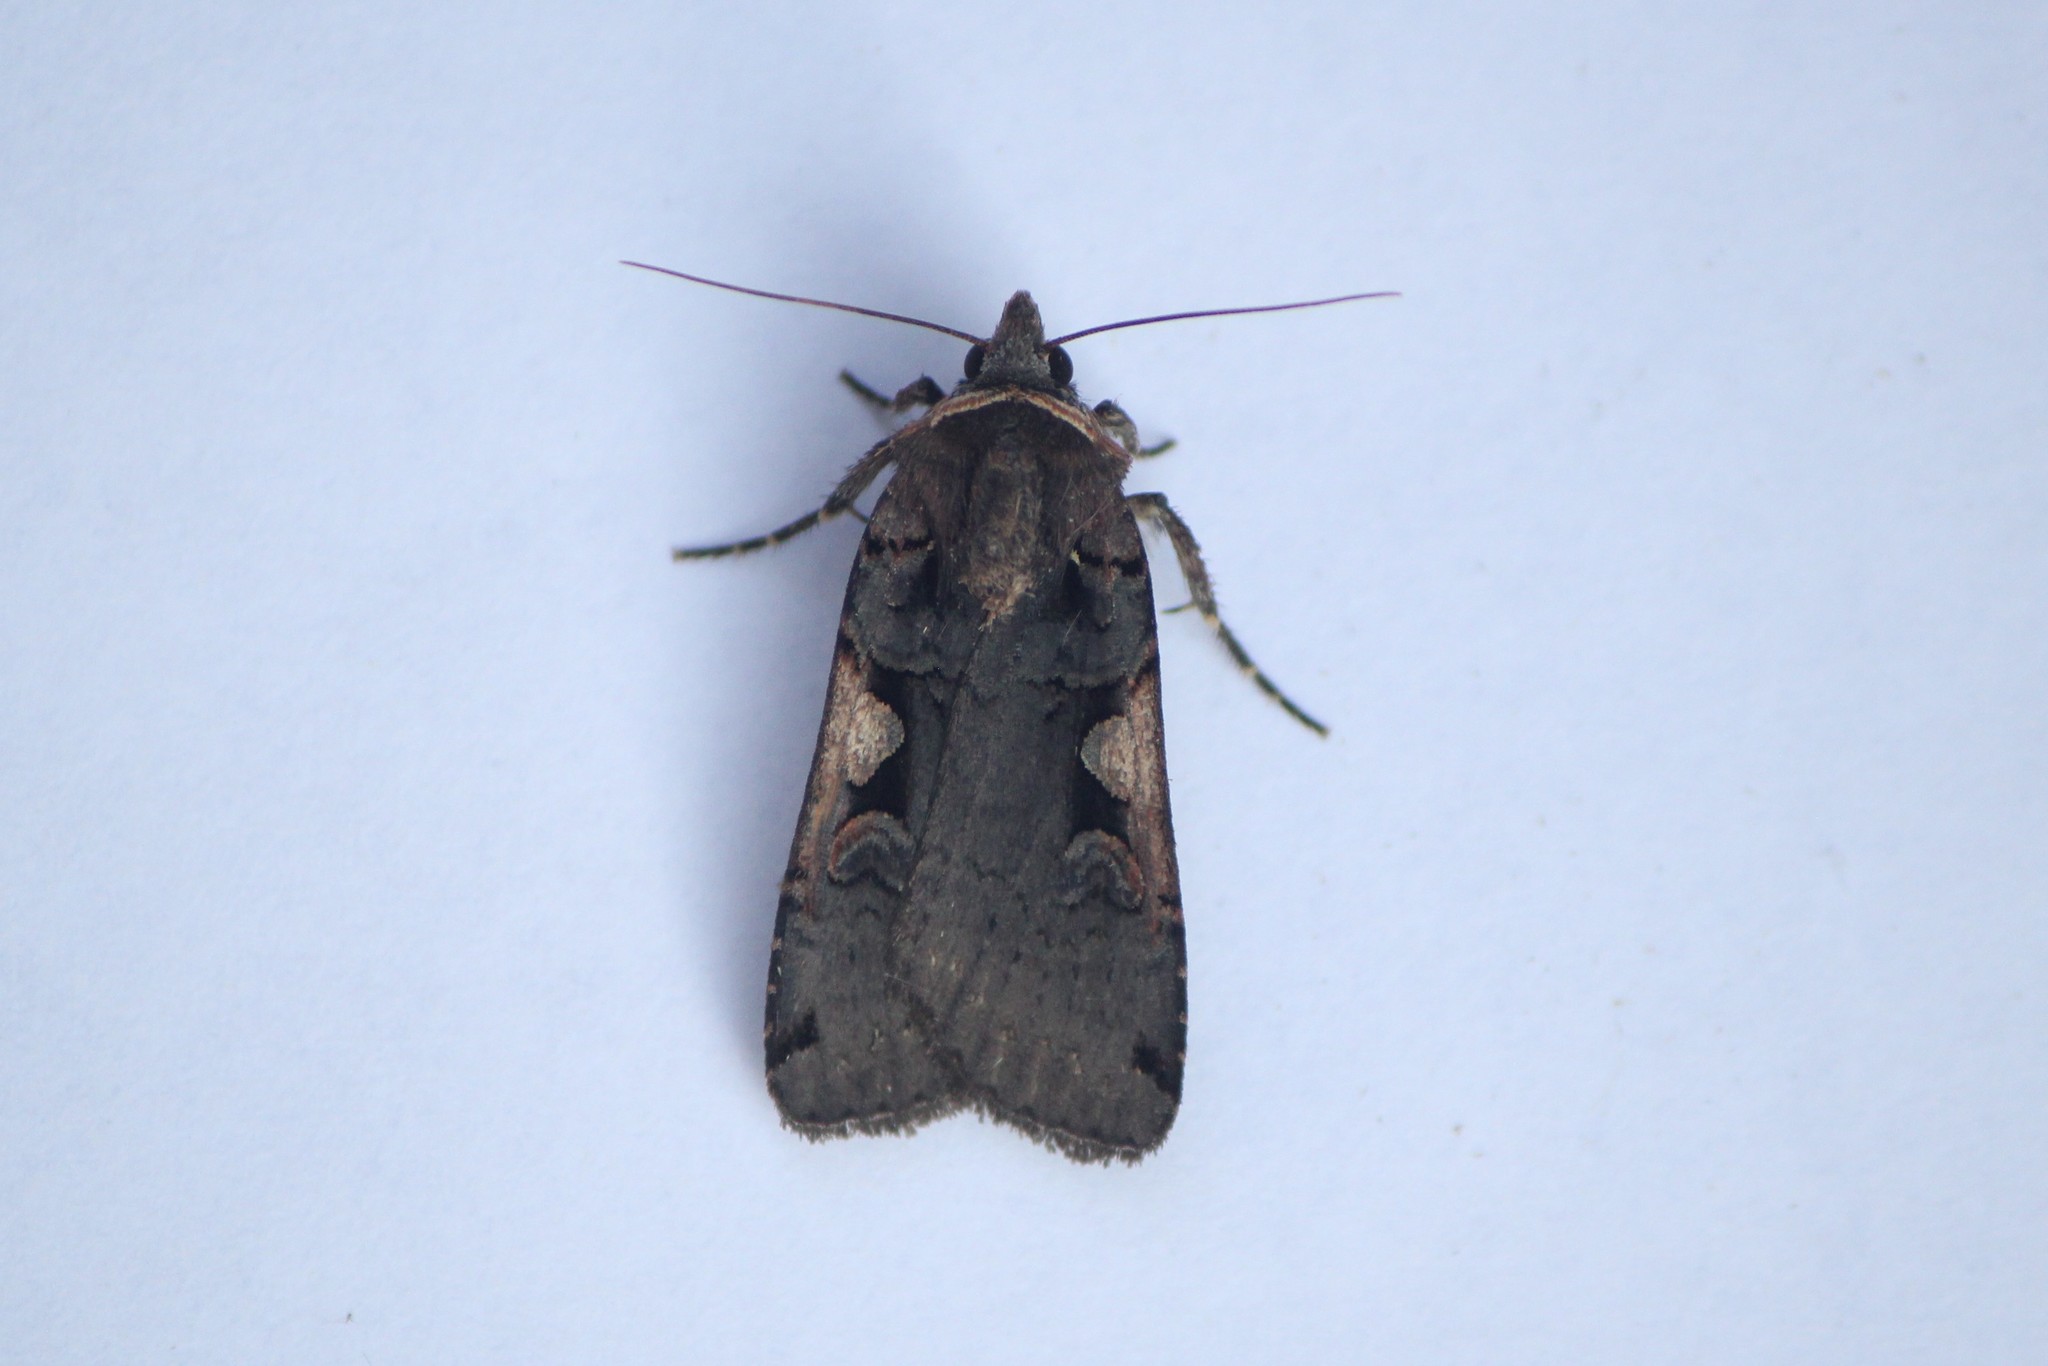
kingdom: Animalia
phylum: Arthropoda
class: Insecta
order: Lepidoptera
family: Noctuidae
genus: Xestia
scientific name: Xestia dolosa
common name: Cutworm moth
